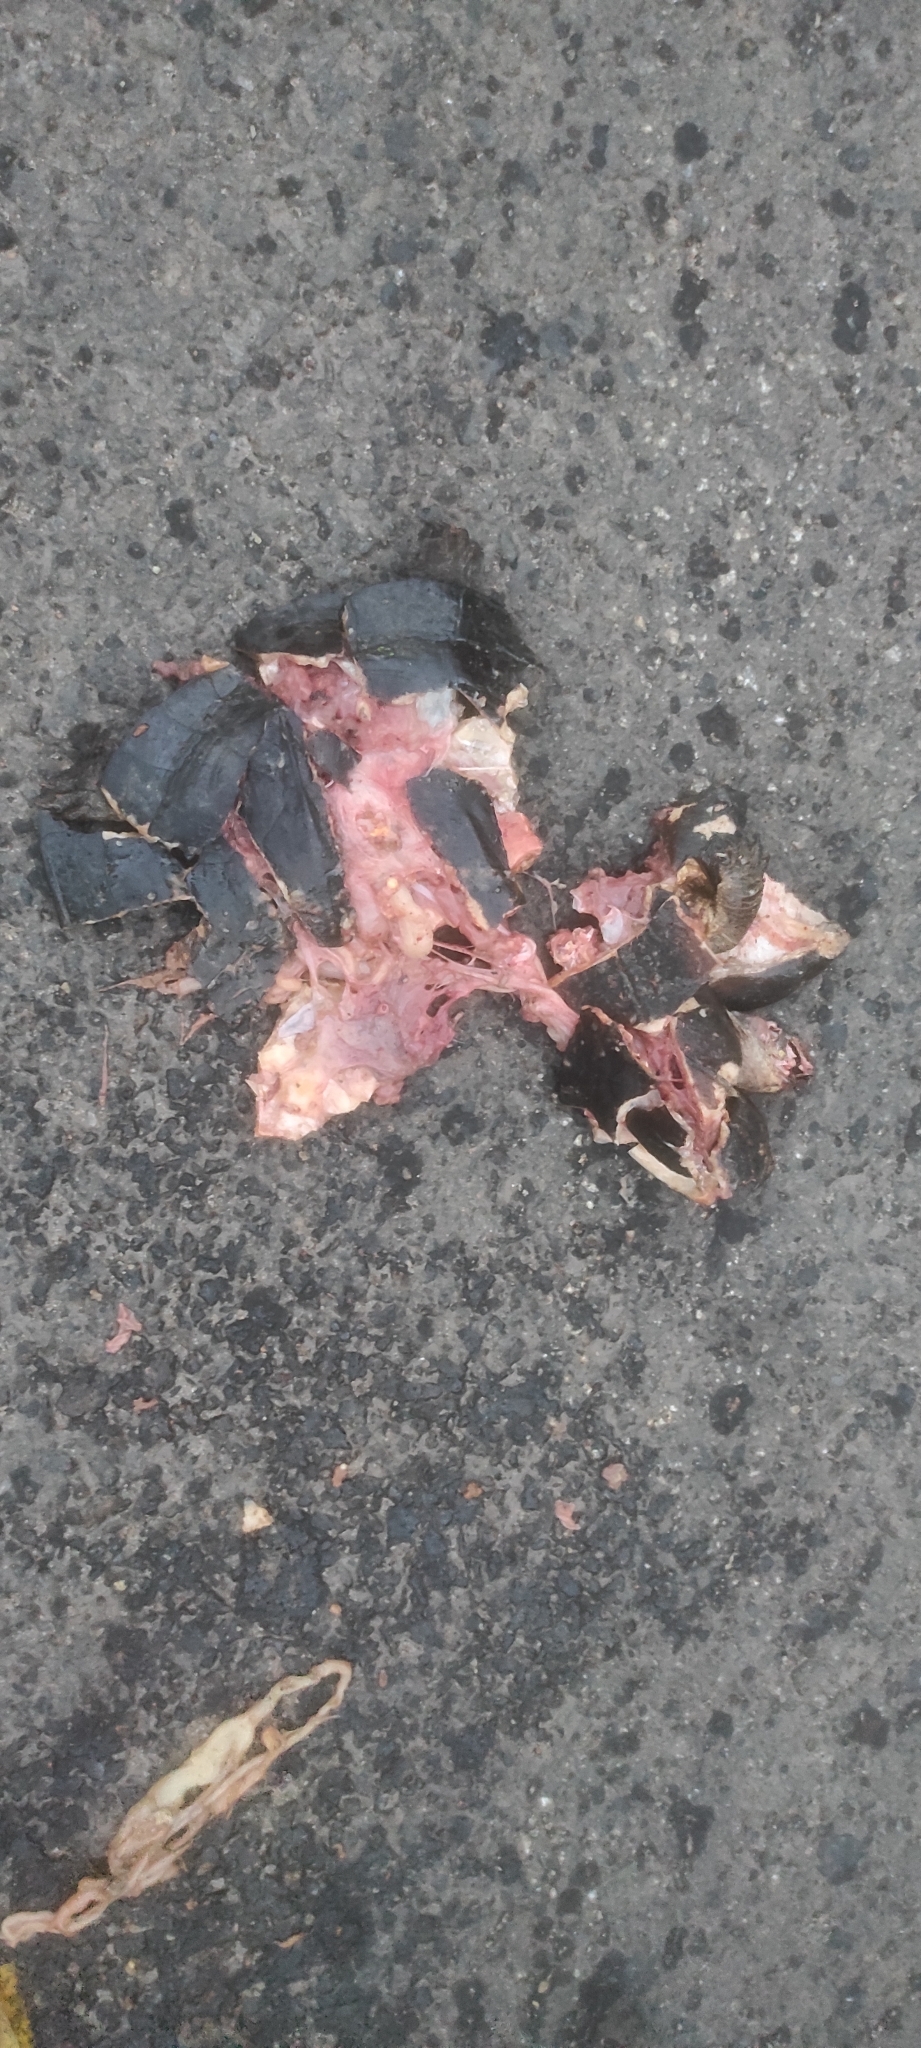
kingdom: Animalia
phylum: Chordata
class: Testudines
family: Geoemydidae
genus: Melanochelys
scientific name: Melanochelys trijuga
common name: Indian black turtle
